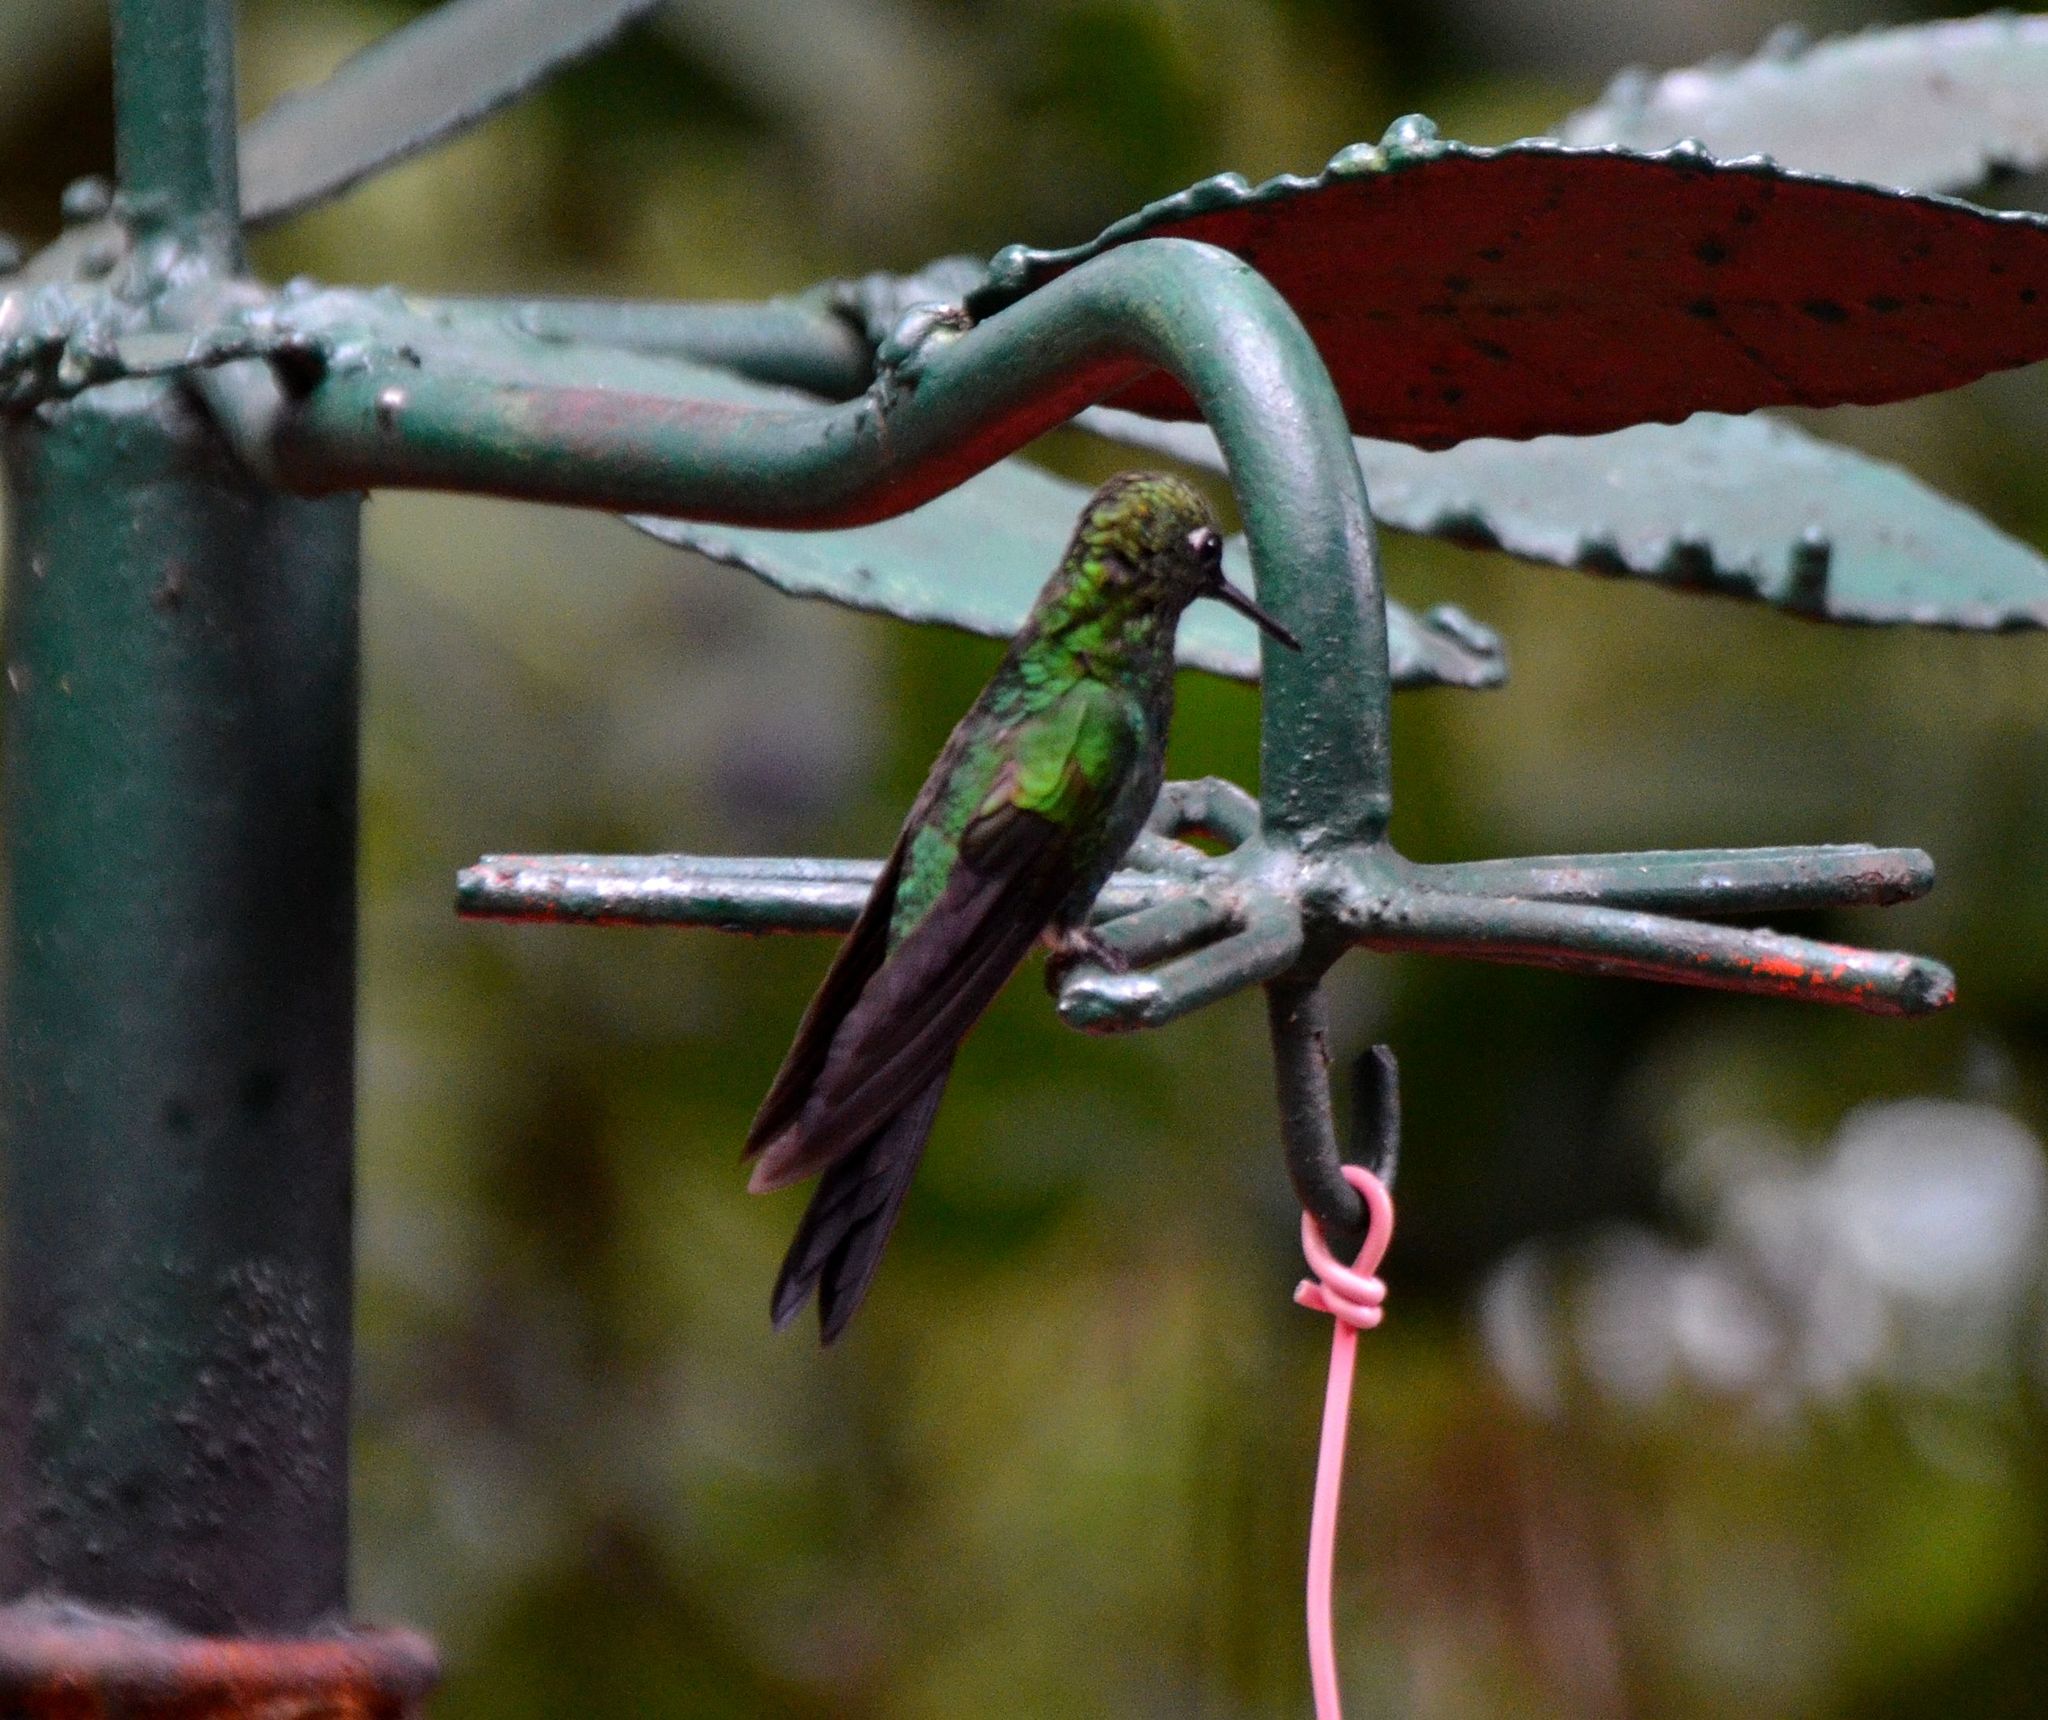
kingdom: Animalia
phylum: Chordata
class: Aves
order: Apodiformes
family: Trochilidae
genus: Heliodoxa
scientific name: Heliodoxa jacula
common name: Green-crowned brilliant
